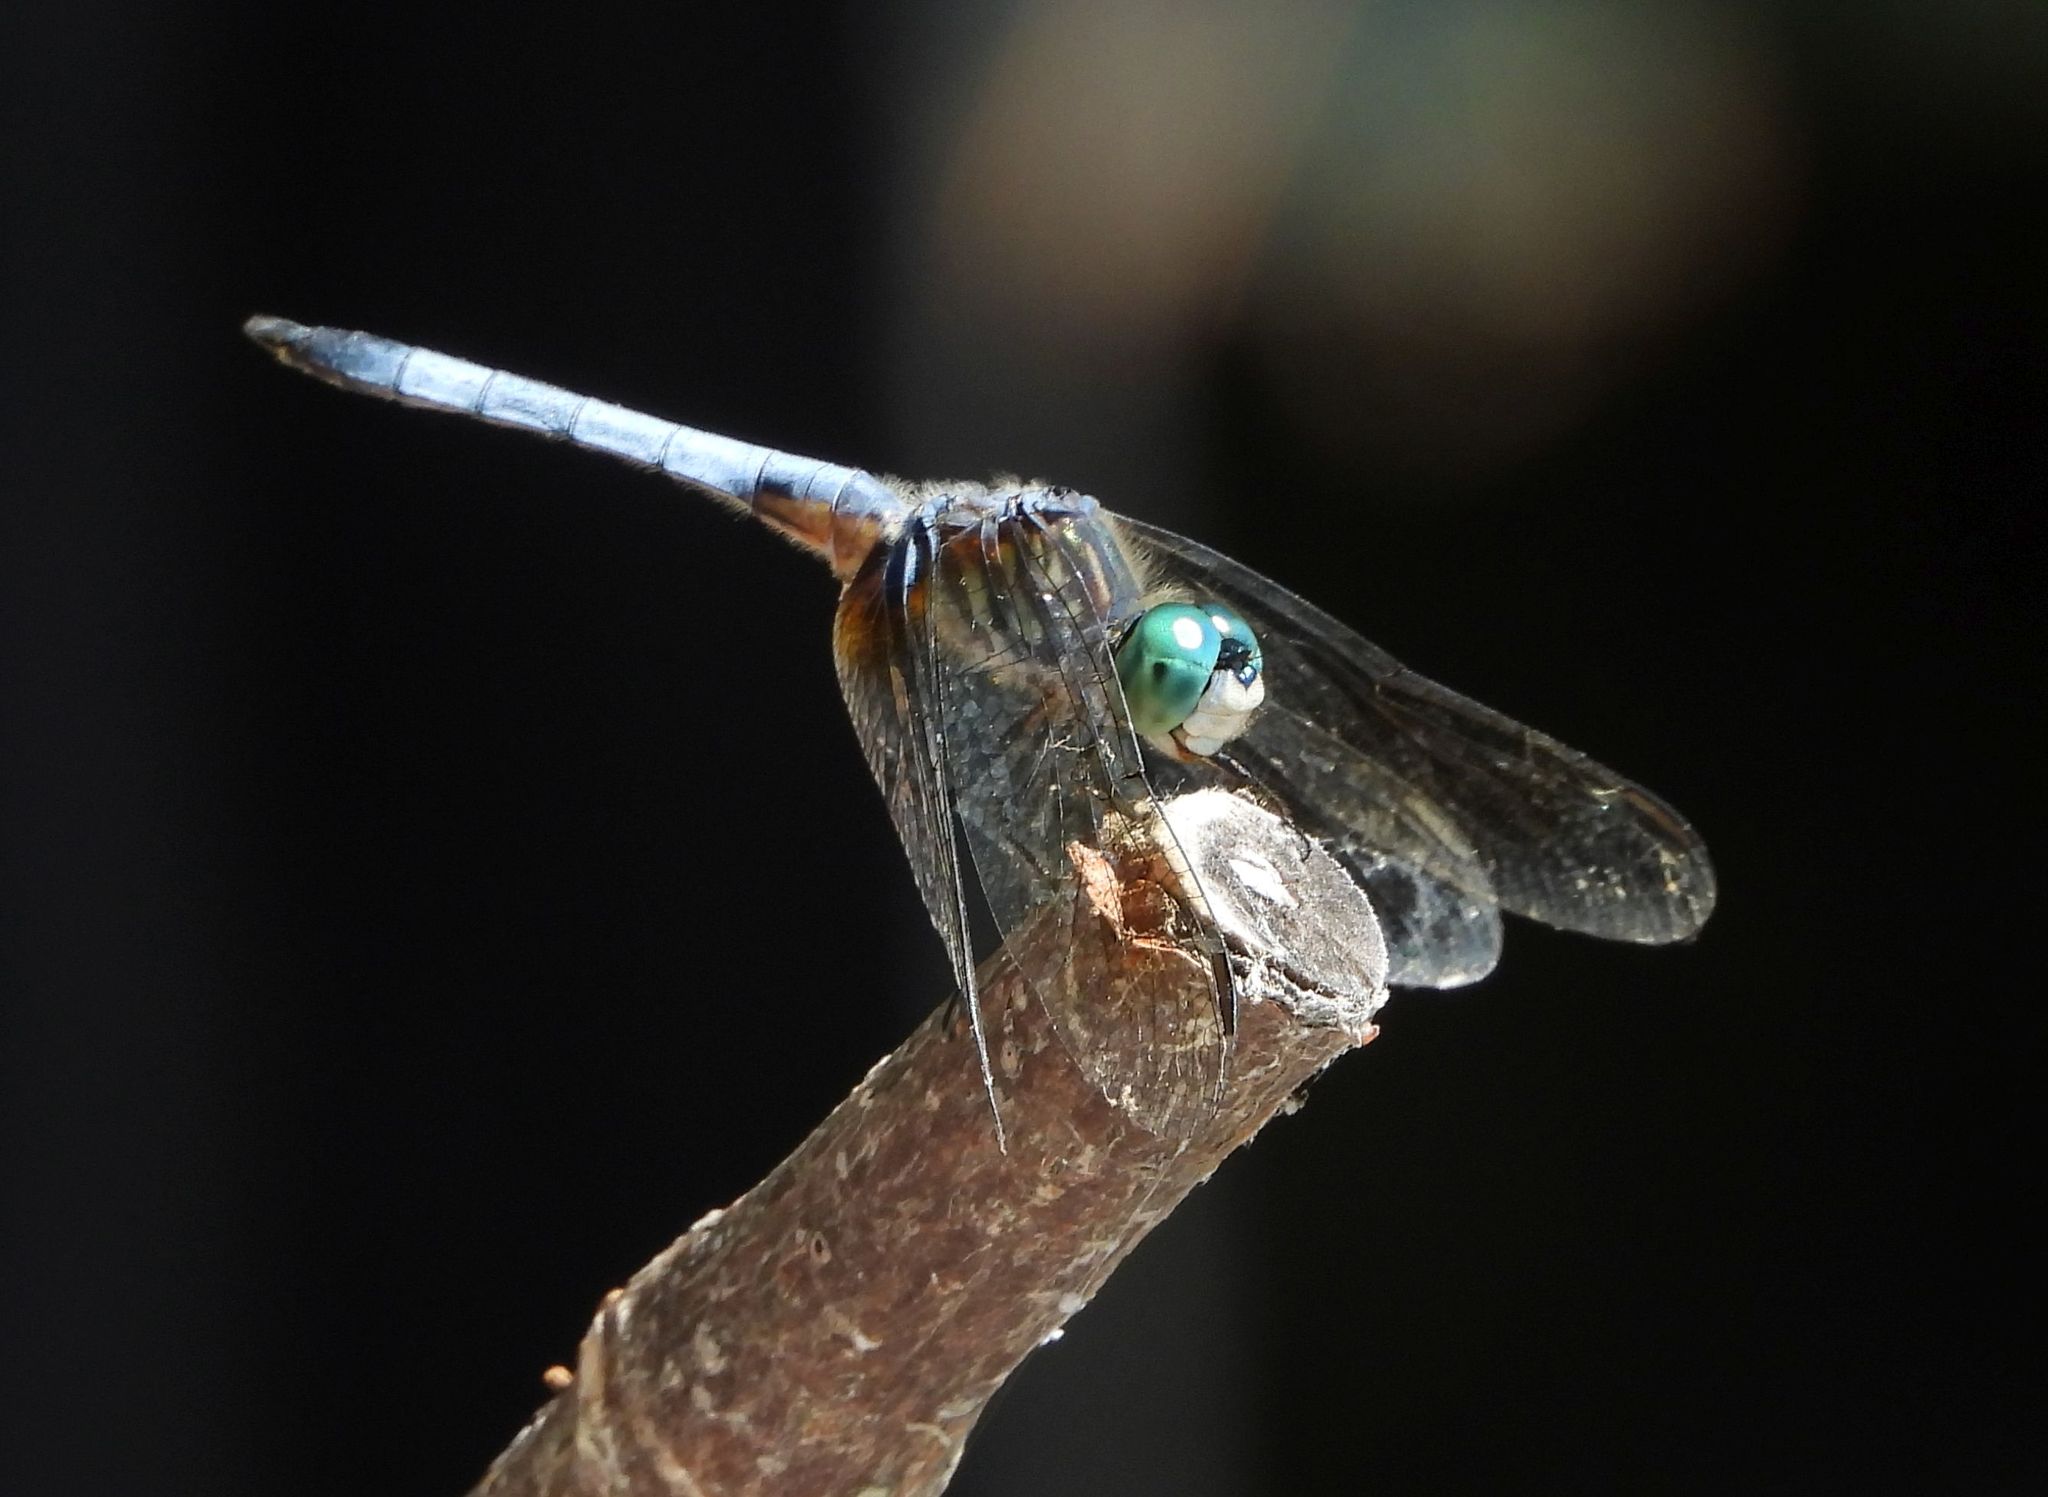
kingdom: Animalia
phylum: Arthropoda
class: Insecta
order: Odonata
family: Libellulidae
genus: Pachydiplax
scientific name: Pachydiplax longipennis
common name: Blue dasher
